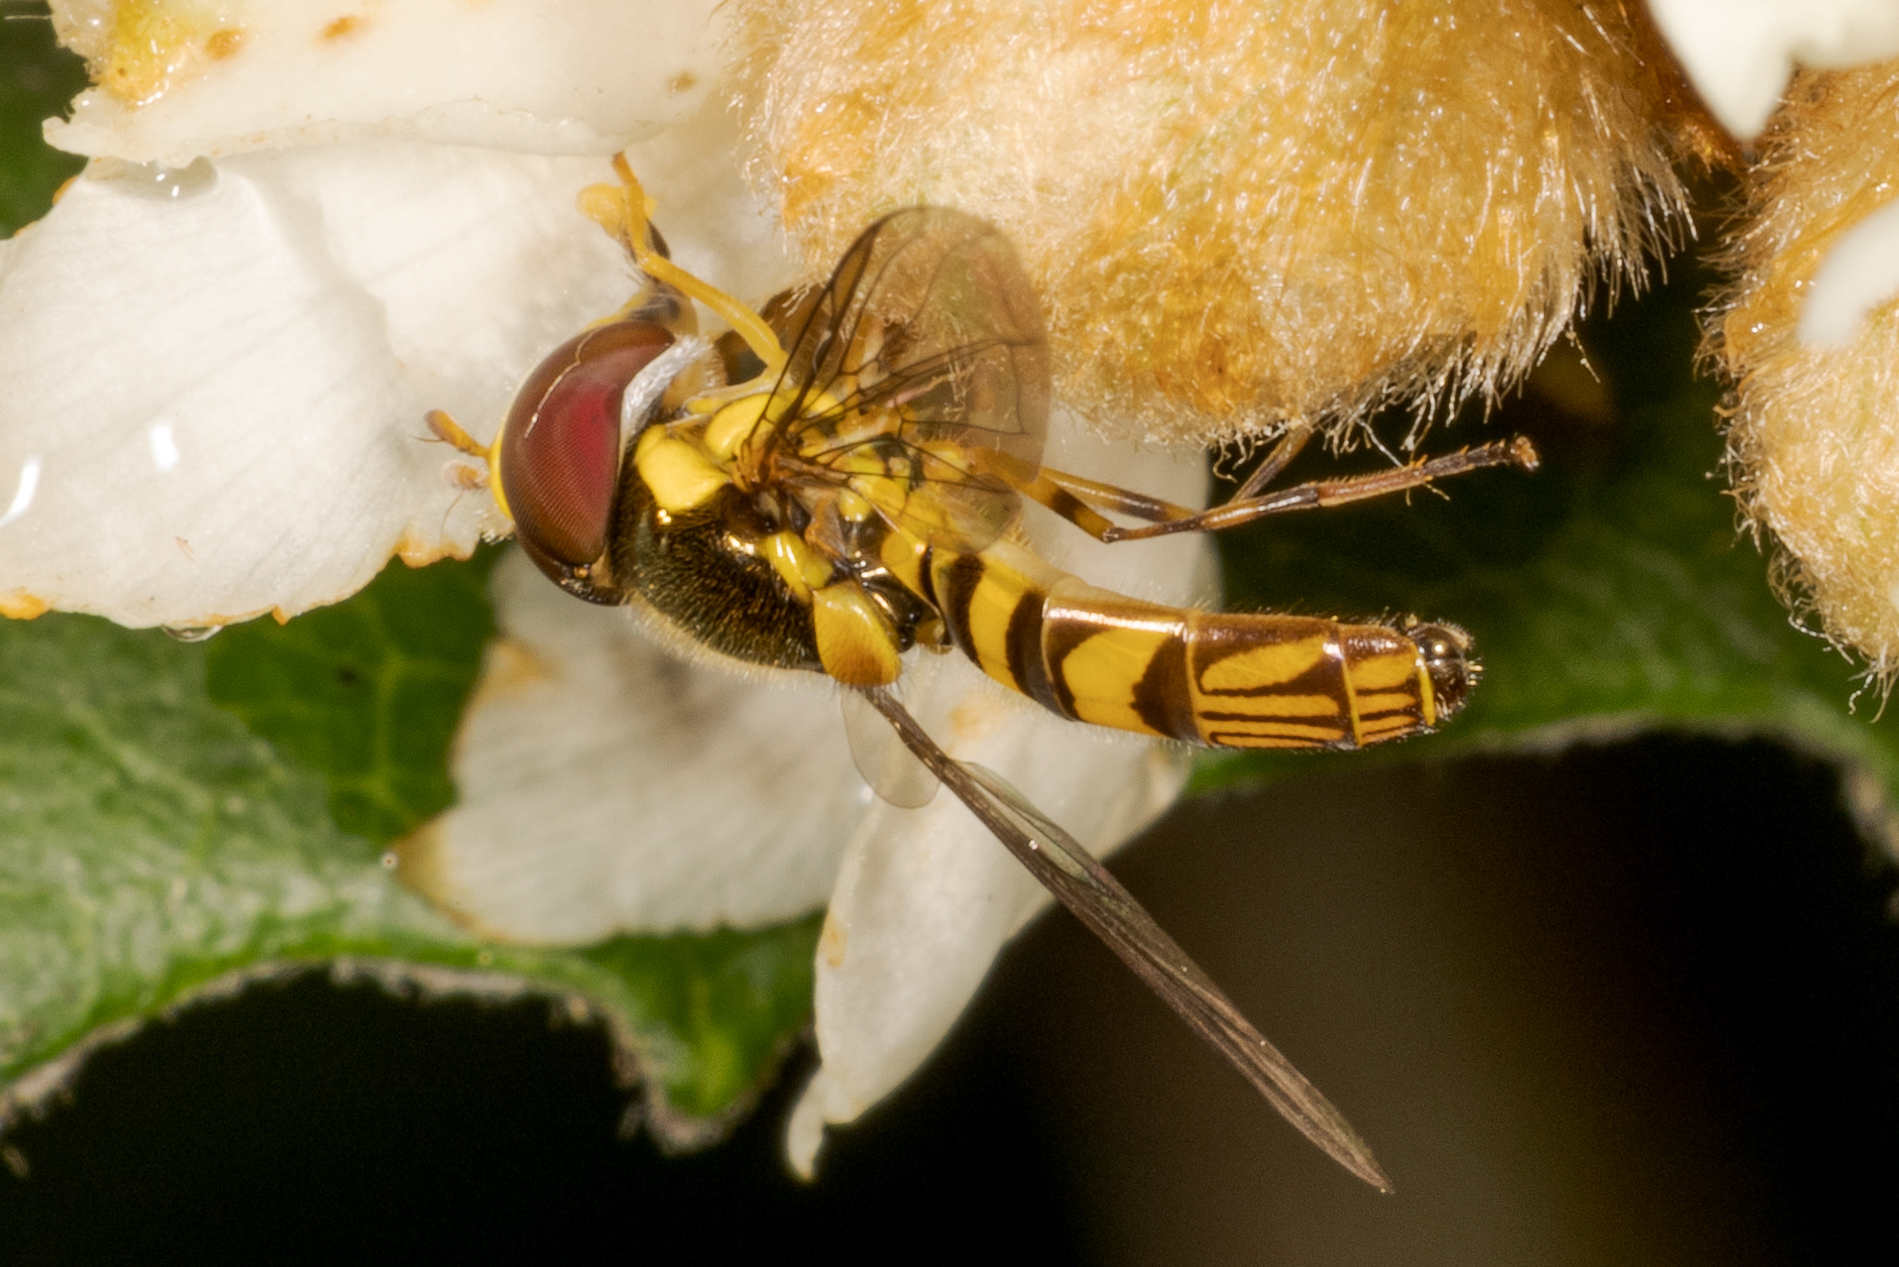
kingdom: Animalia
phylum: Arthropoda
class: Insecta
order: Diptera
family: Syrphidae
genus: Allograpta
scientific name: Allograpta obliqua
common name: Common oblique syrphid
